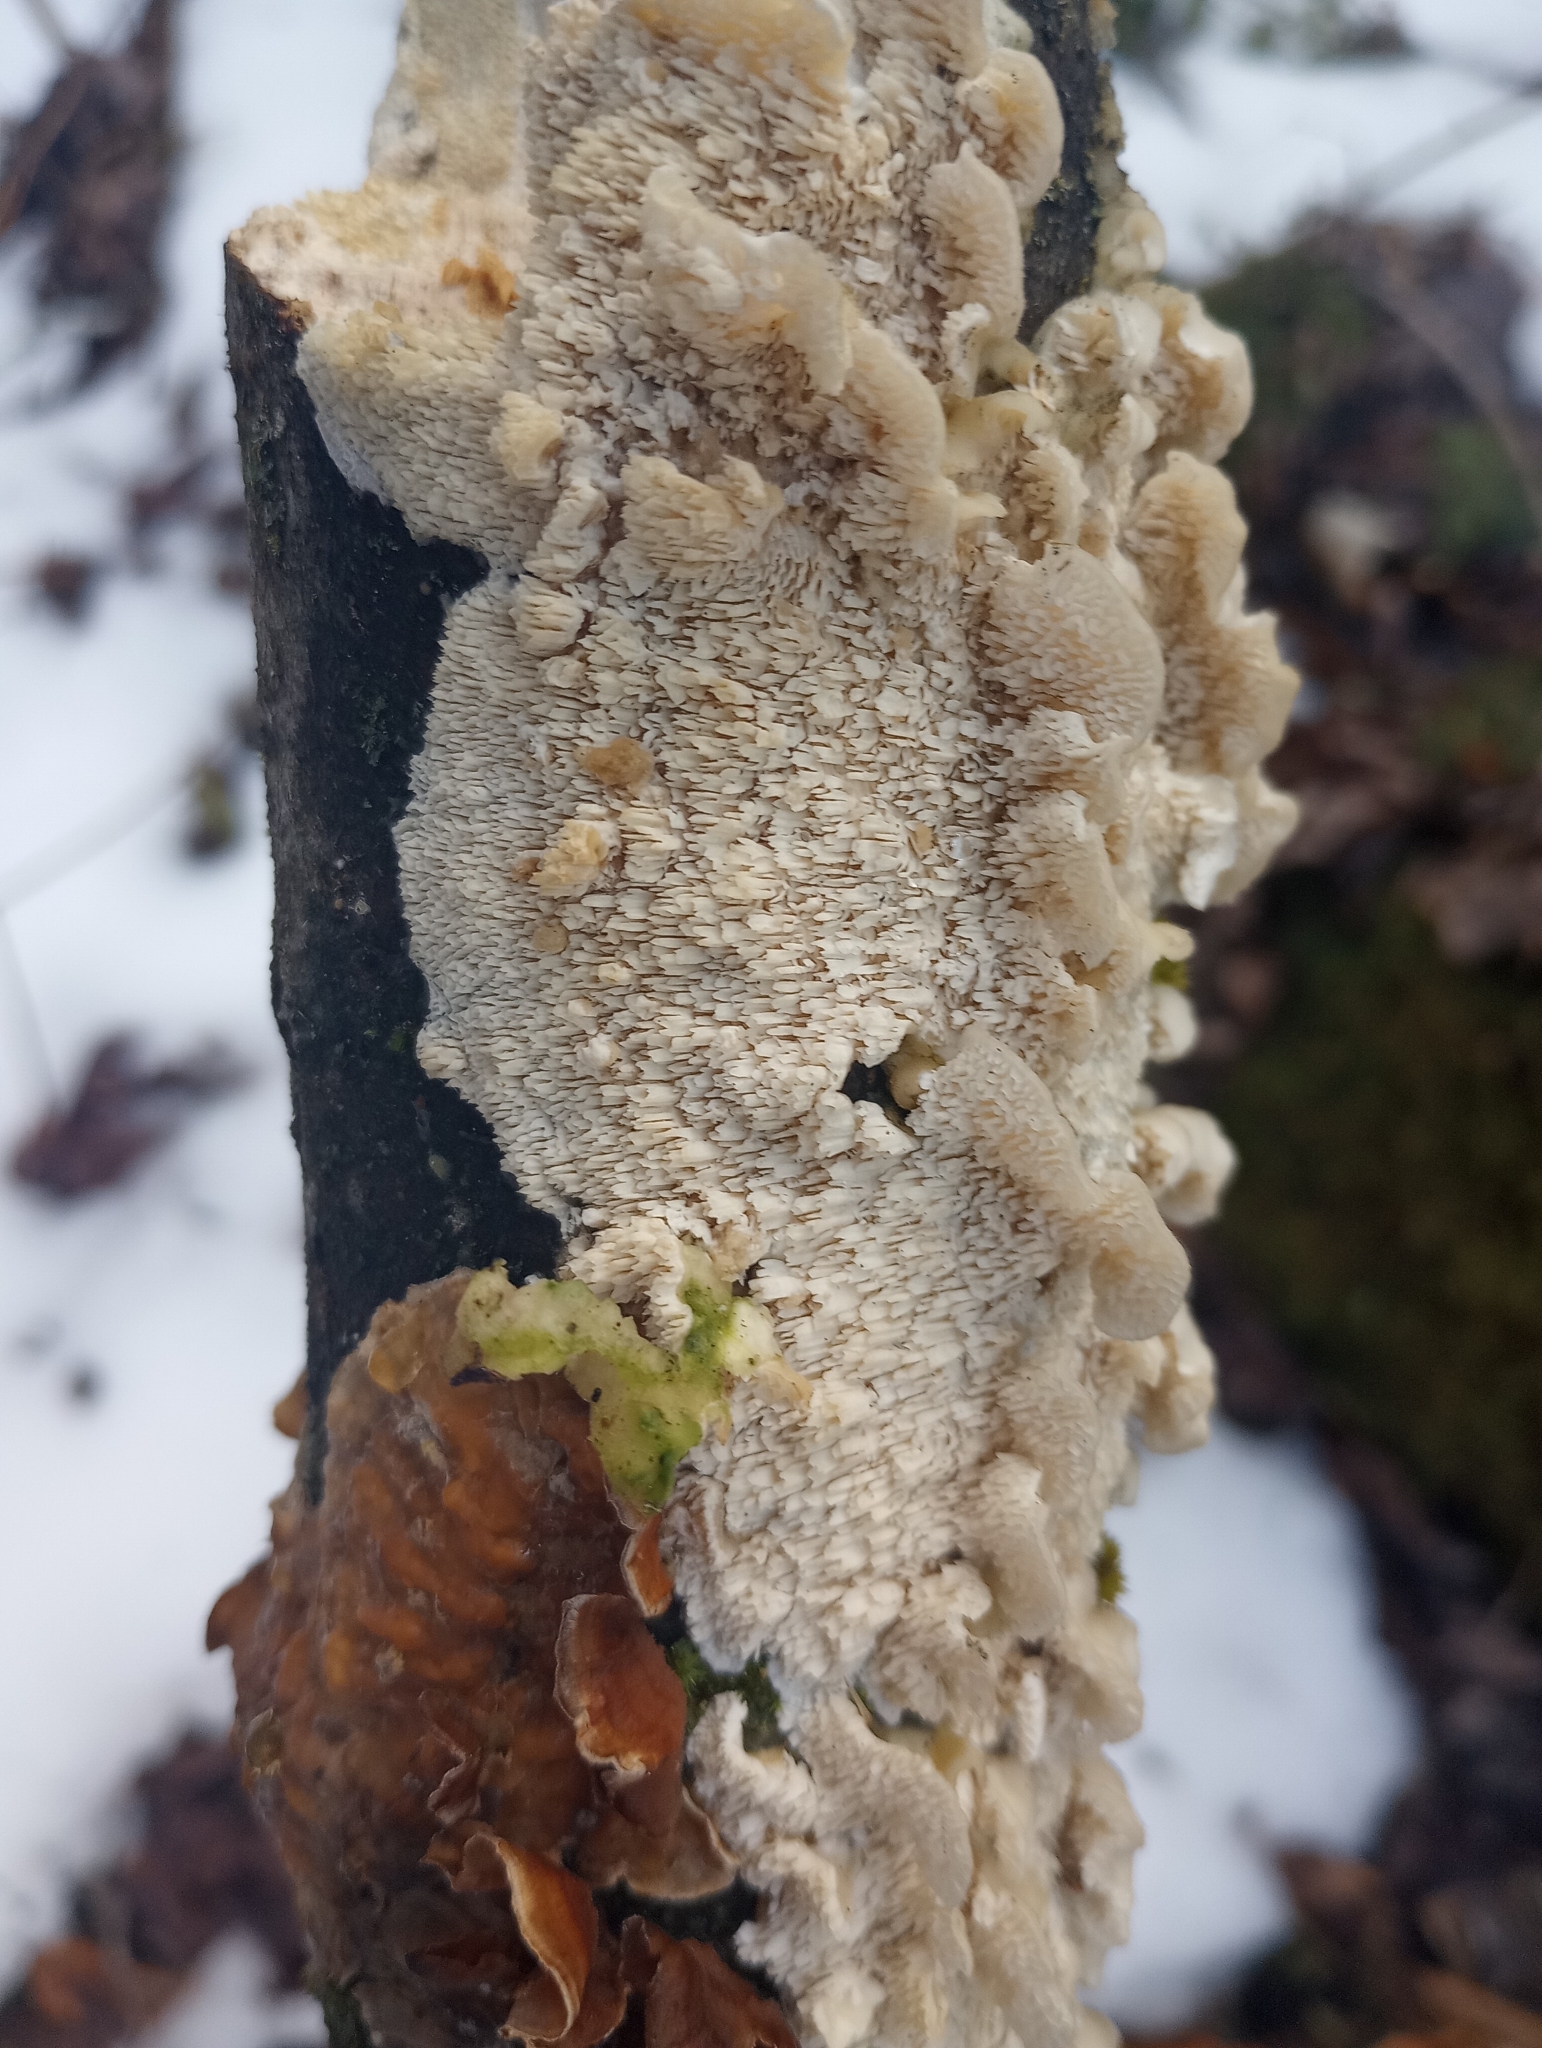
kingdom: Fungi
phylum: Basidiomycota
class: Agaricomycetes
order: Polyporales
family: Meruliaceae
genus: Irpiciporus
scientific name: Irpiciporus pachyodon
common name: Marshmallow polypore
